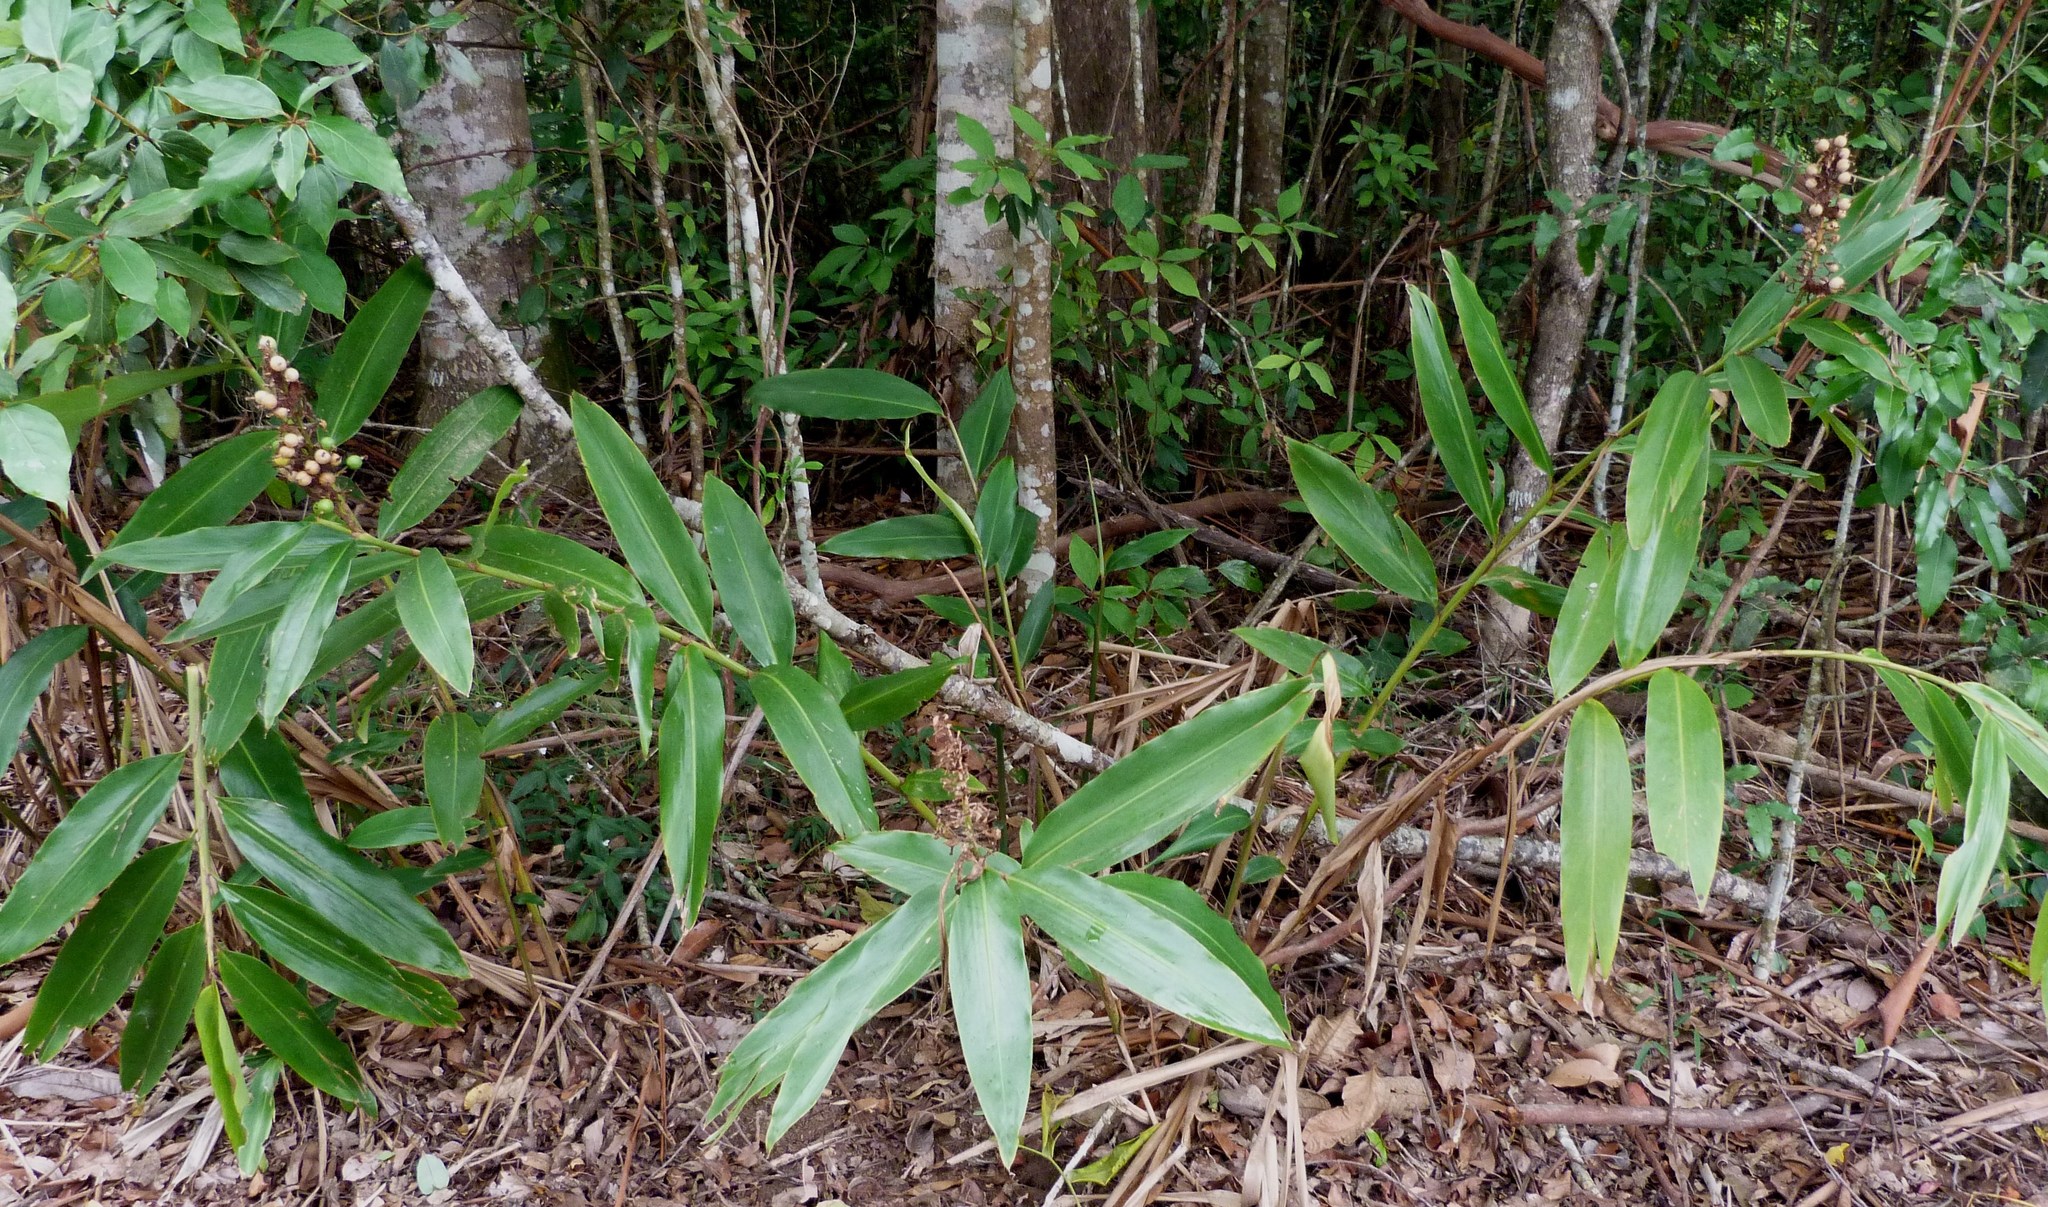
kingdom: Plantae
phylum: Tracheophyta
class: Liliopsida
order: Zingiberales
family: Zingiberaceae
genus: Alpinia
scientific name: Alpinia caerulea
